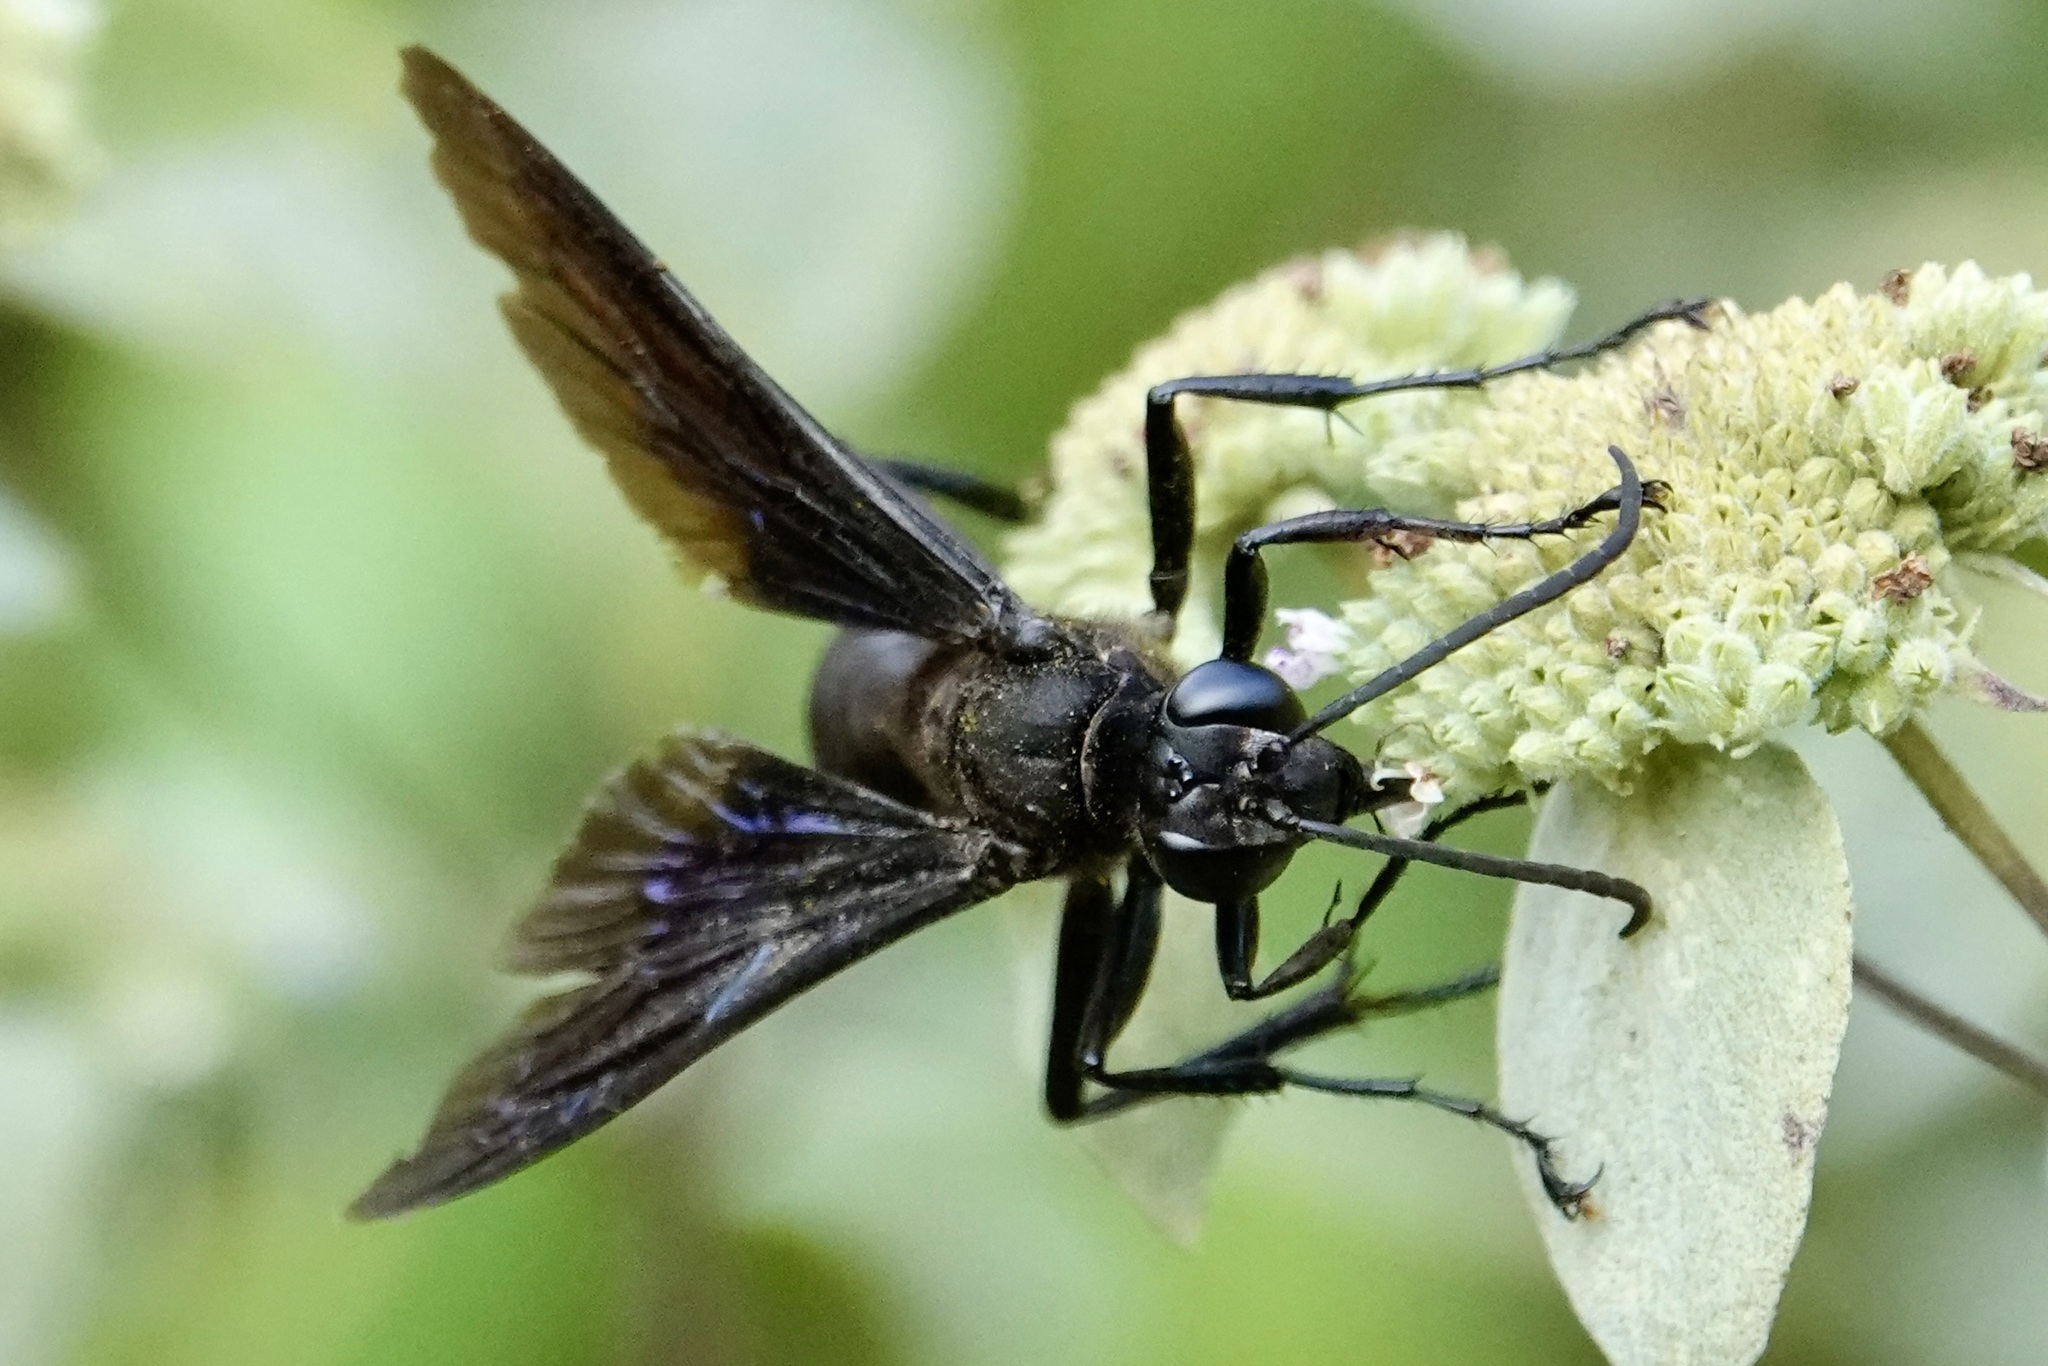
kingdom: Animalia
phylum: Arthropoda
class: Insecta
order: Hymenoptera
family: Sphecidae
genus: Sphex
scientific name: Sphex pensylvanicus
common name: Great black digger wasp
